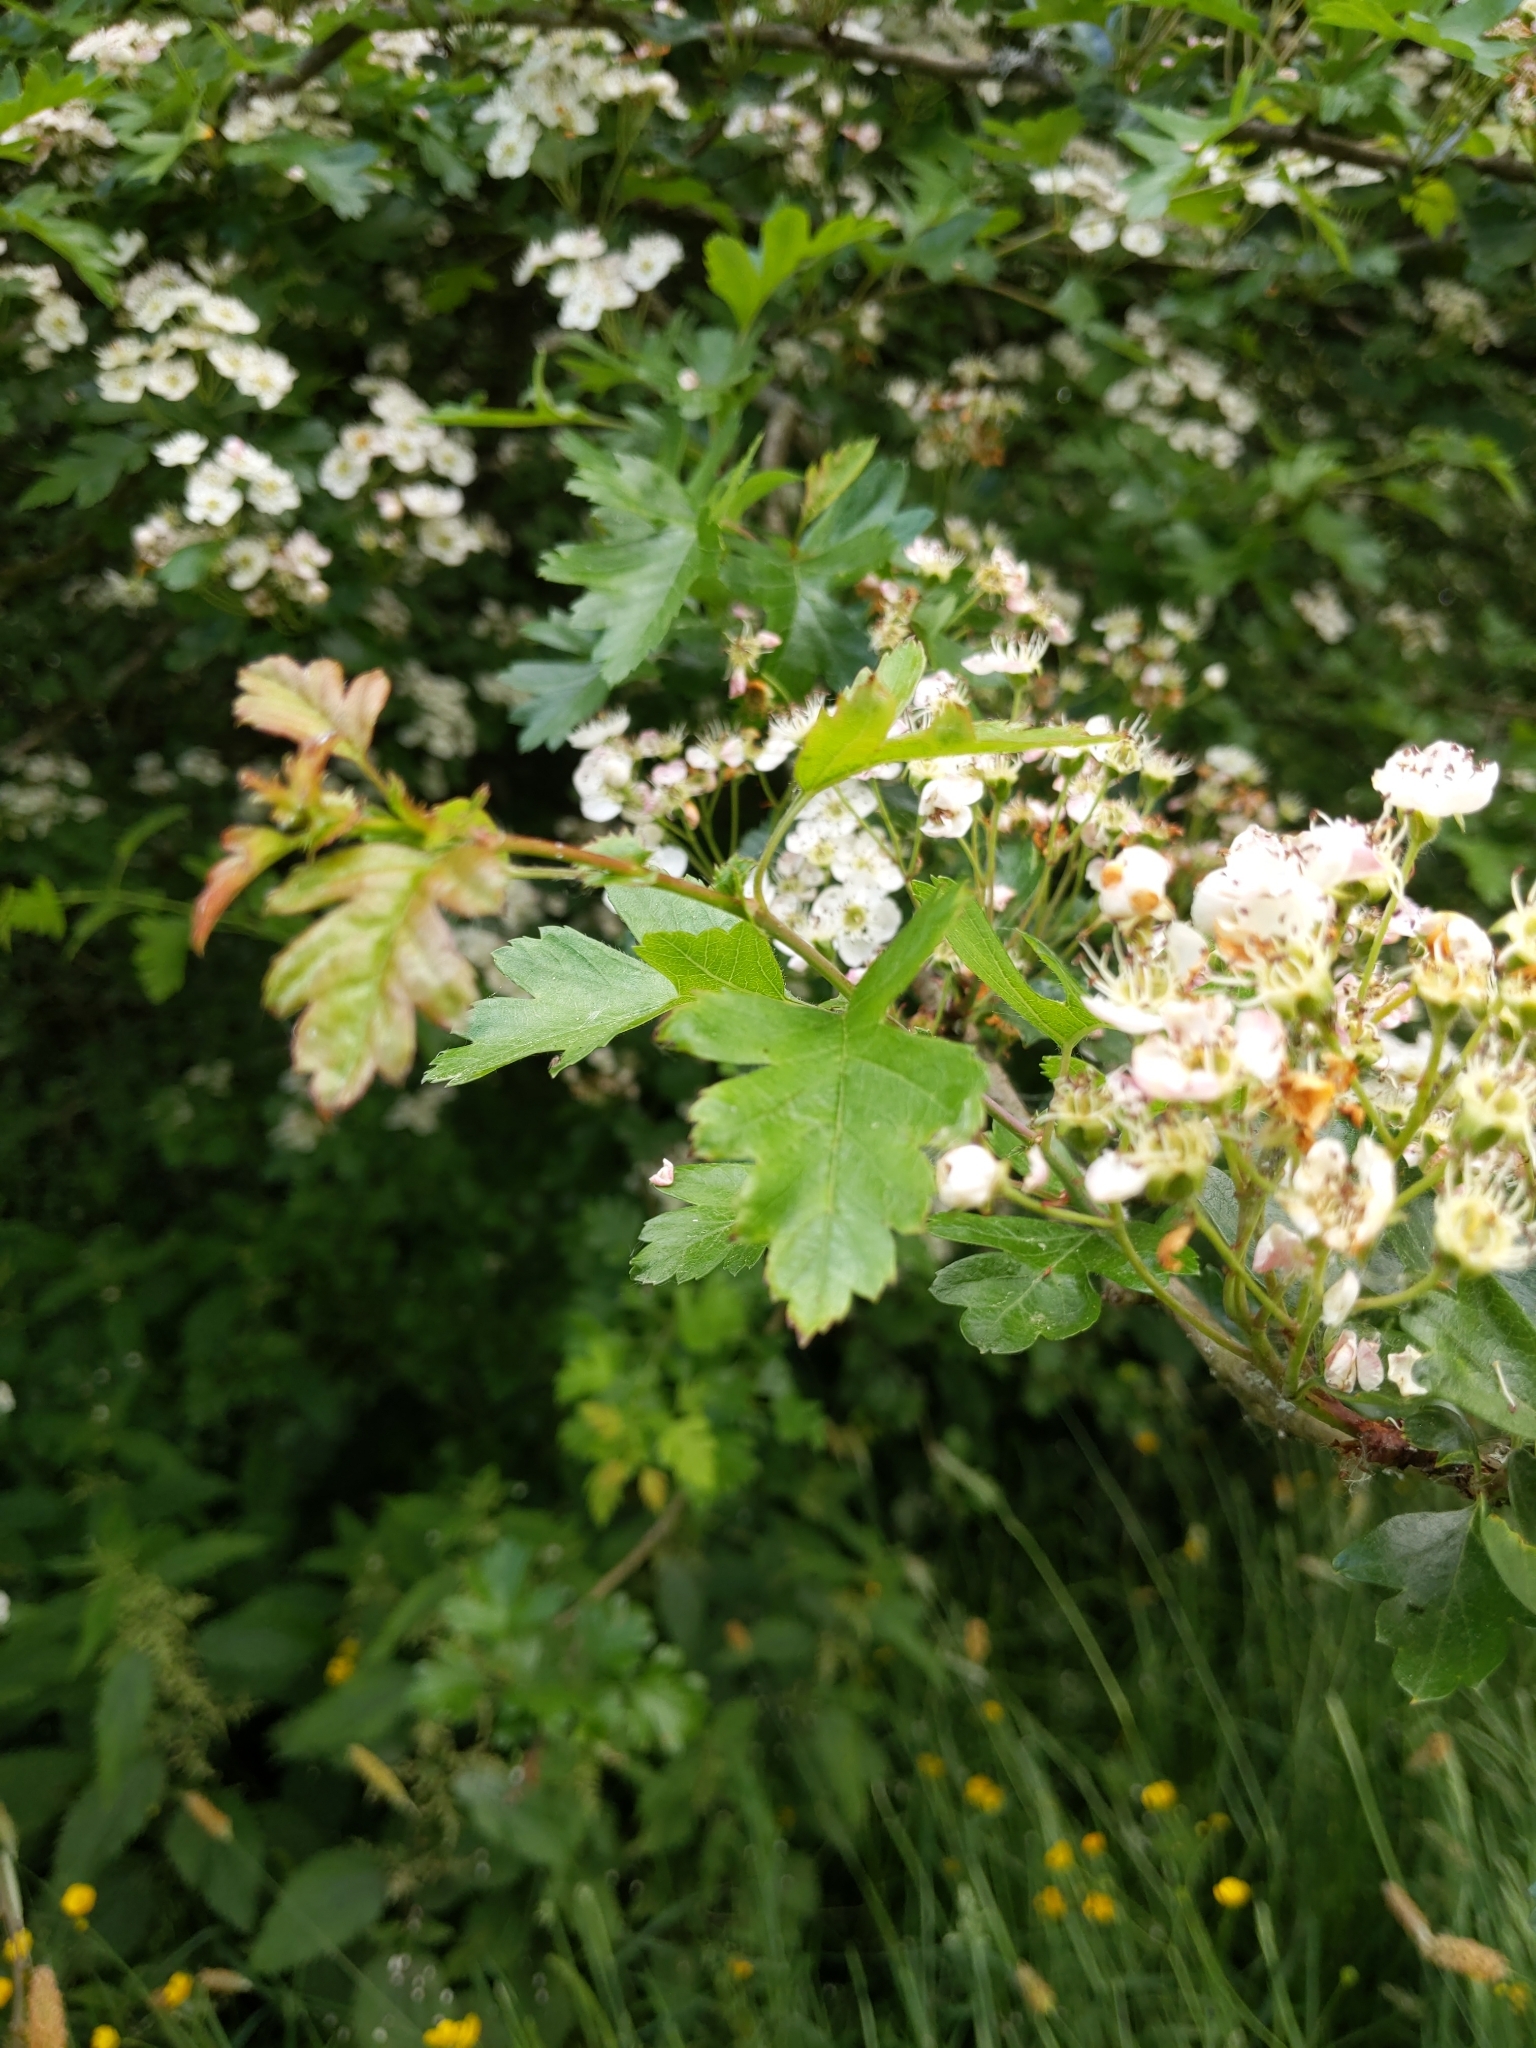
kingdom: Plantae
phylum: Tracheophyta
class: Magnoliopsida
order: Rosales
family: Rosaceae
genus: Crataegus
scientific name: Crataegus monogyna
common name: Hawthorn
